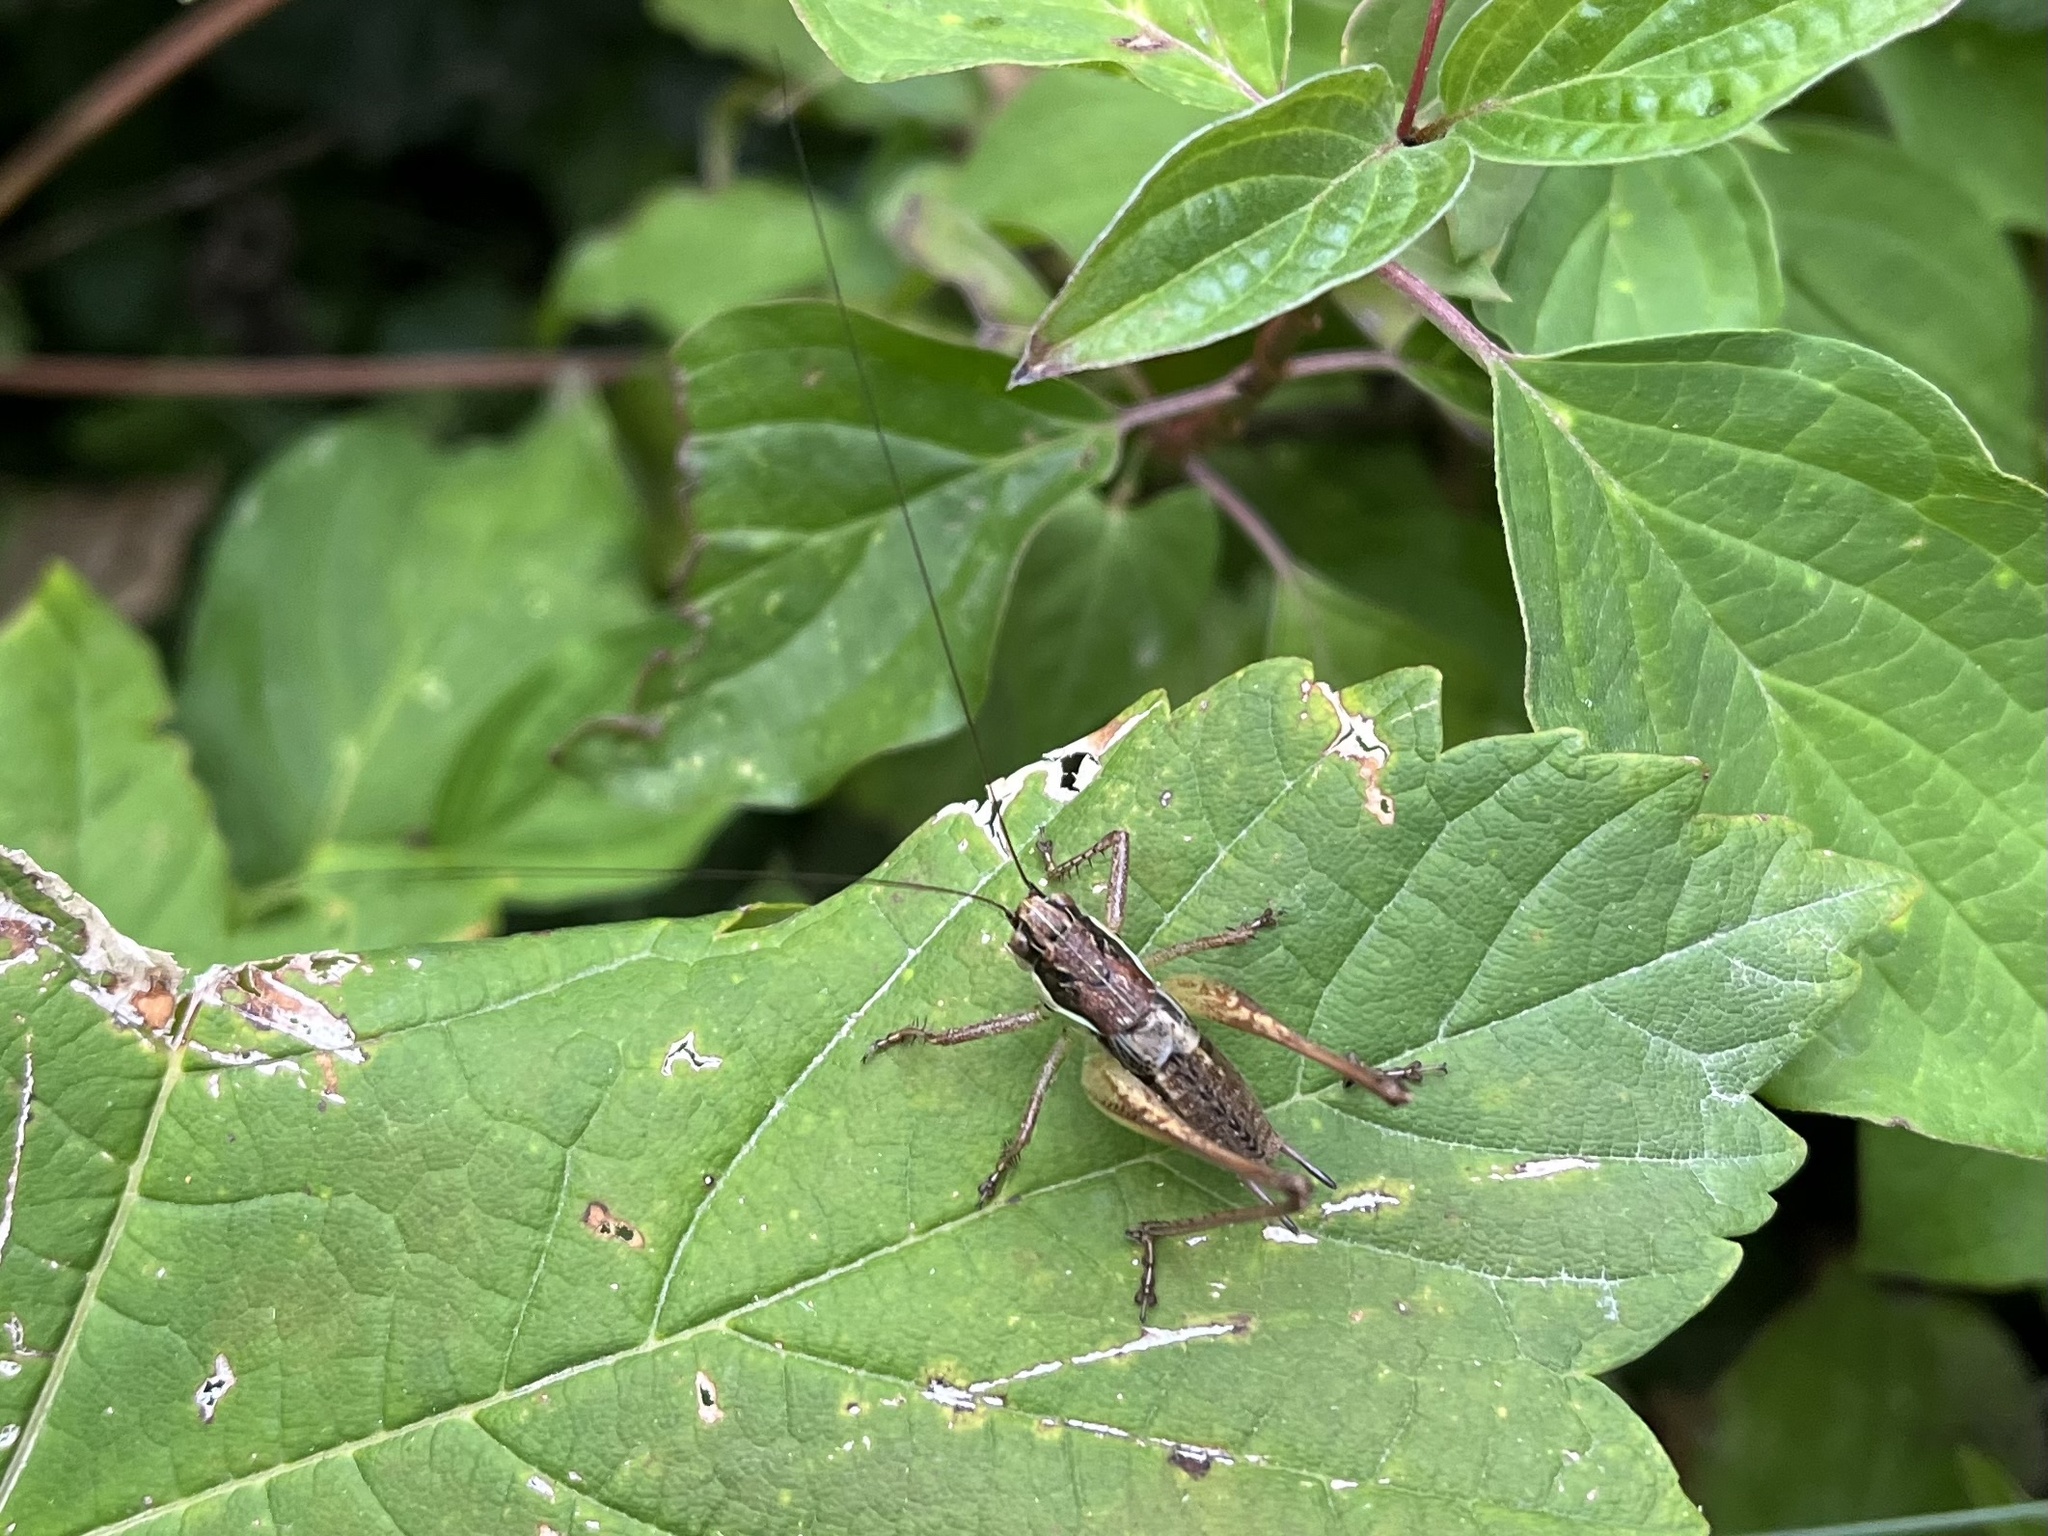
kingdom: Animalia
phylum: Arthropoda
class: Insecta
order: Orthoptera
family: Tettigoniidae
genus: Pachytrachis
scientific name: Pachytrachis gracilis
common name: Graceful bush-cricket
